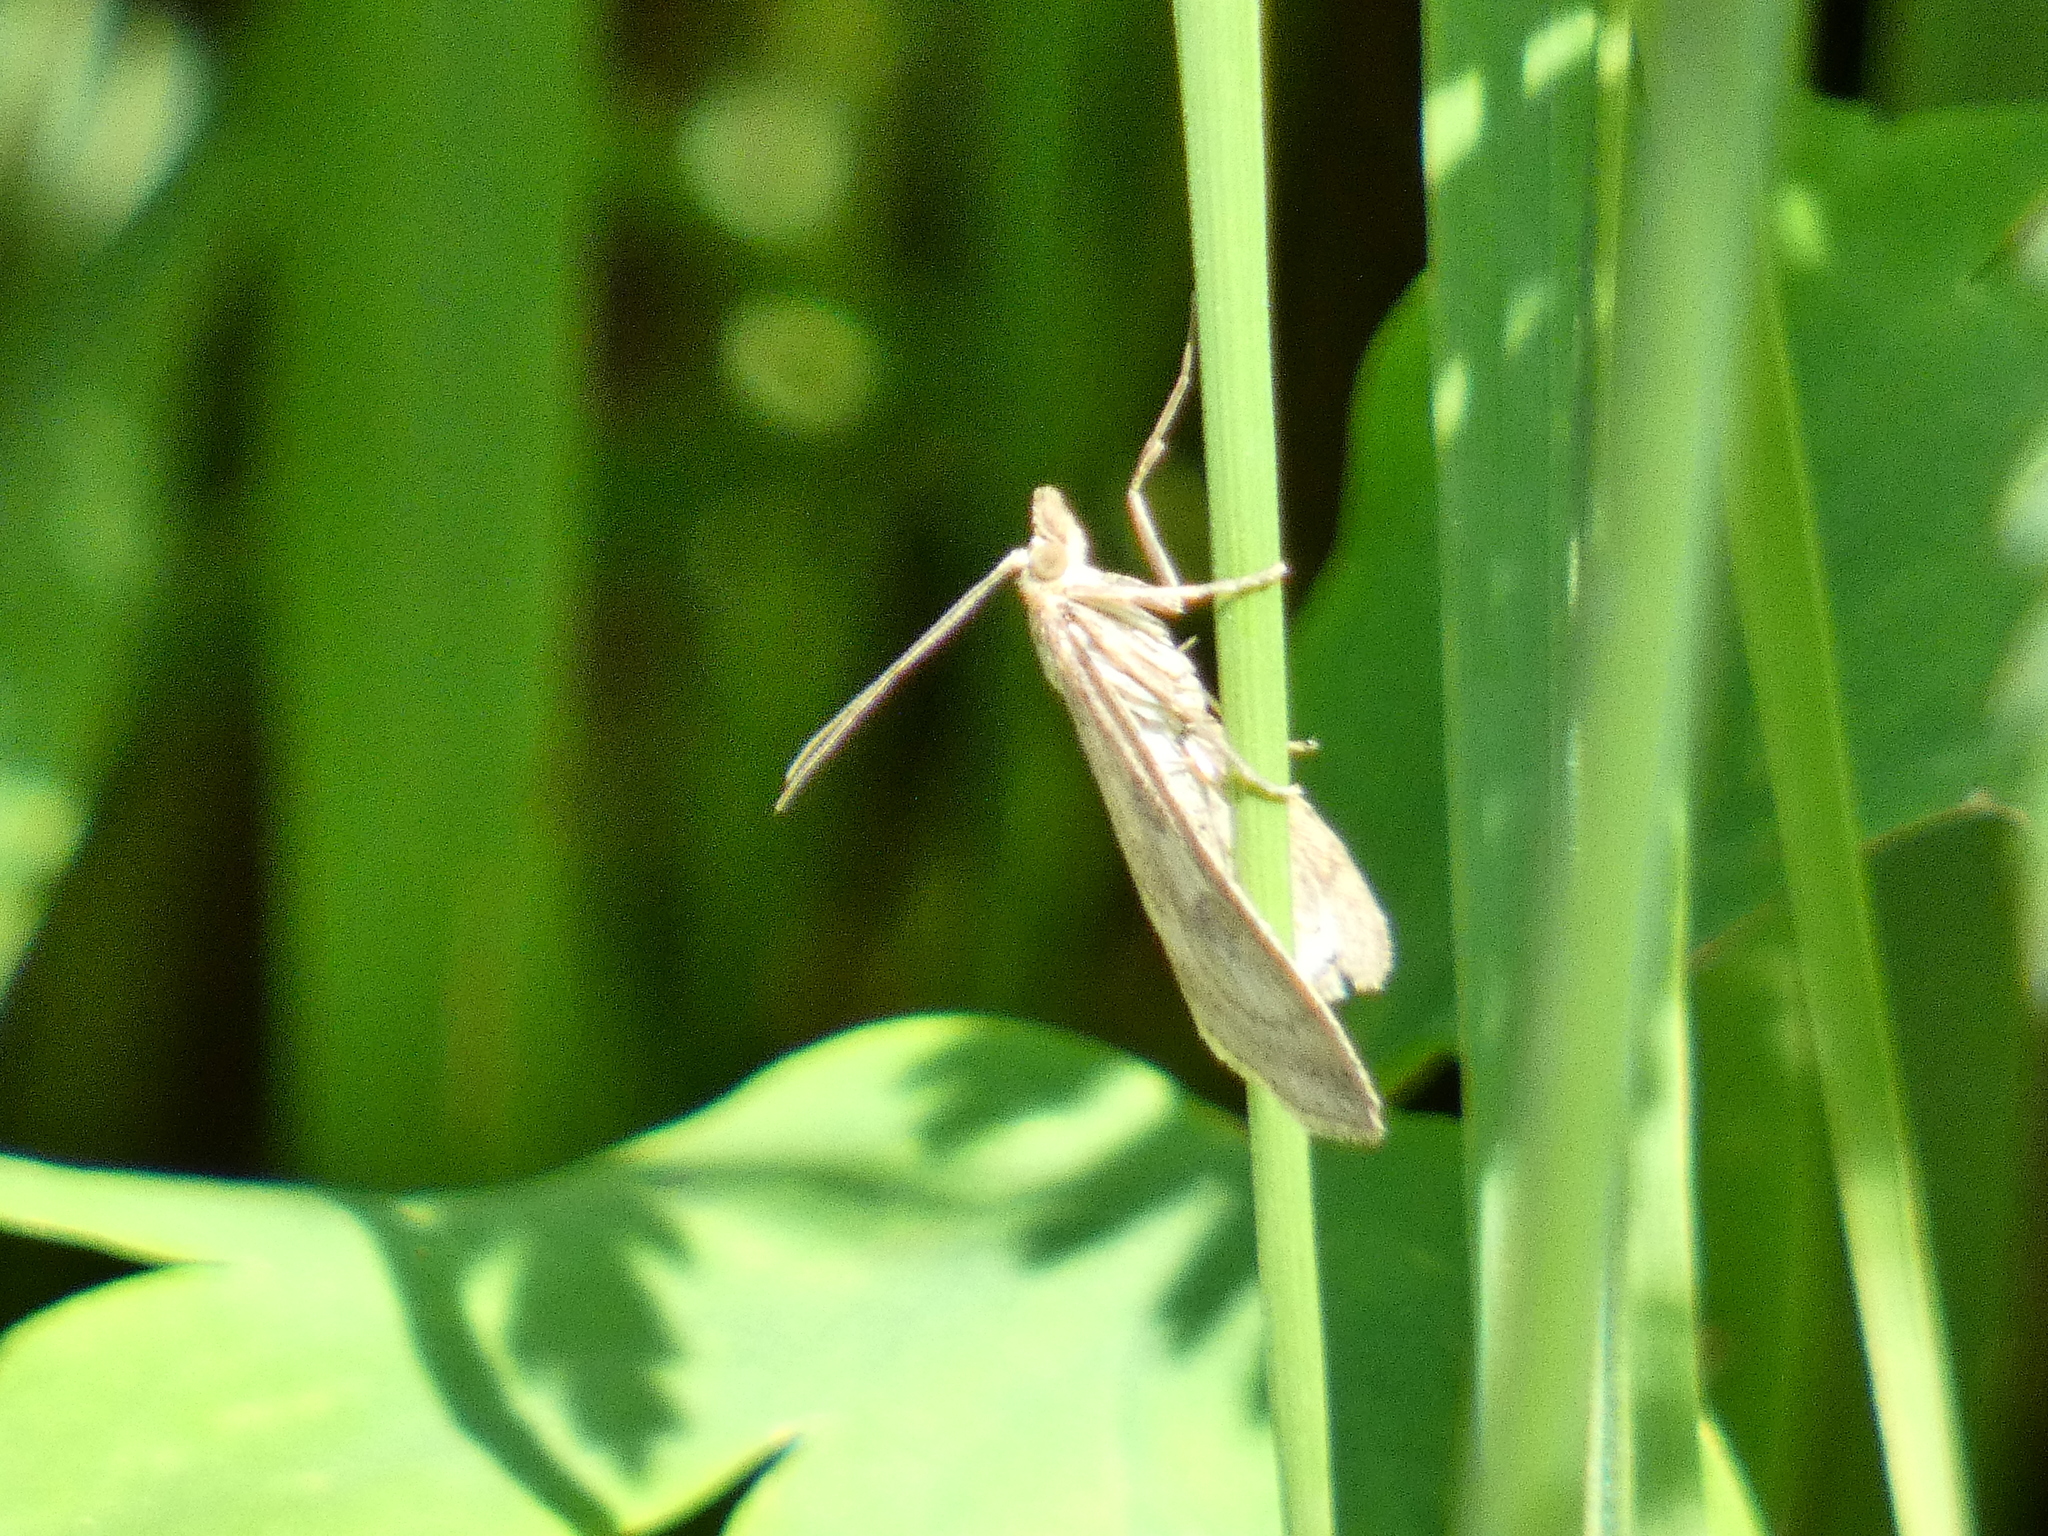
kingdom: Animalia
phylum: Arthropoda
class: Insecta
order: Lepidoptera
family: Crambidae
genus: Udea
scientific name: Udea lutealis
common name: Pale straw pearl
